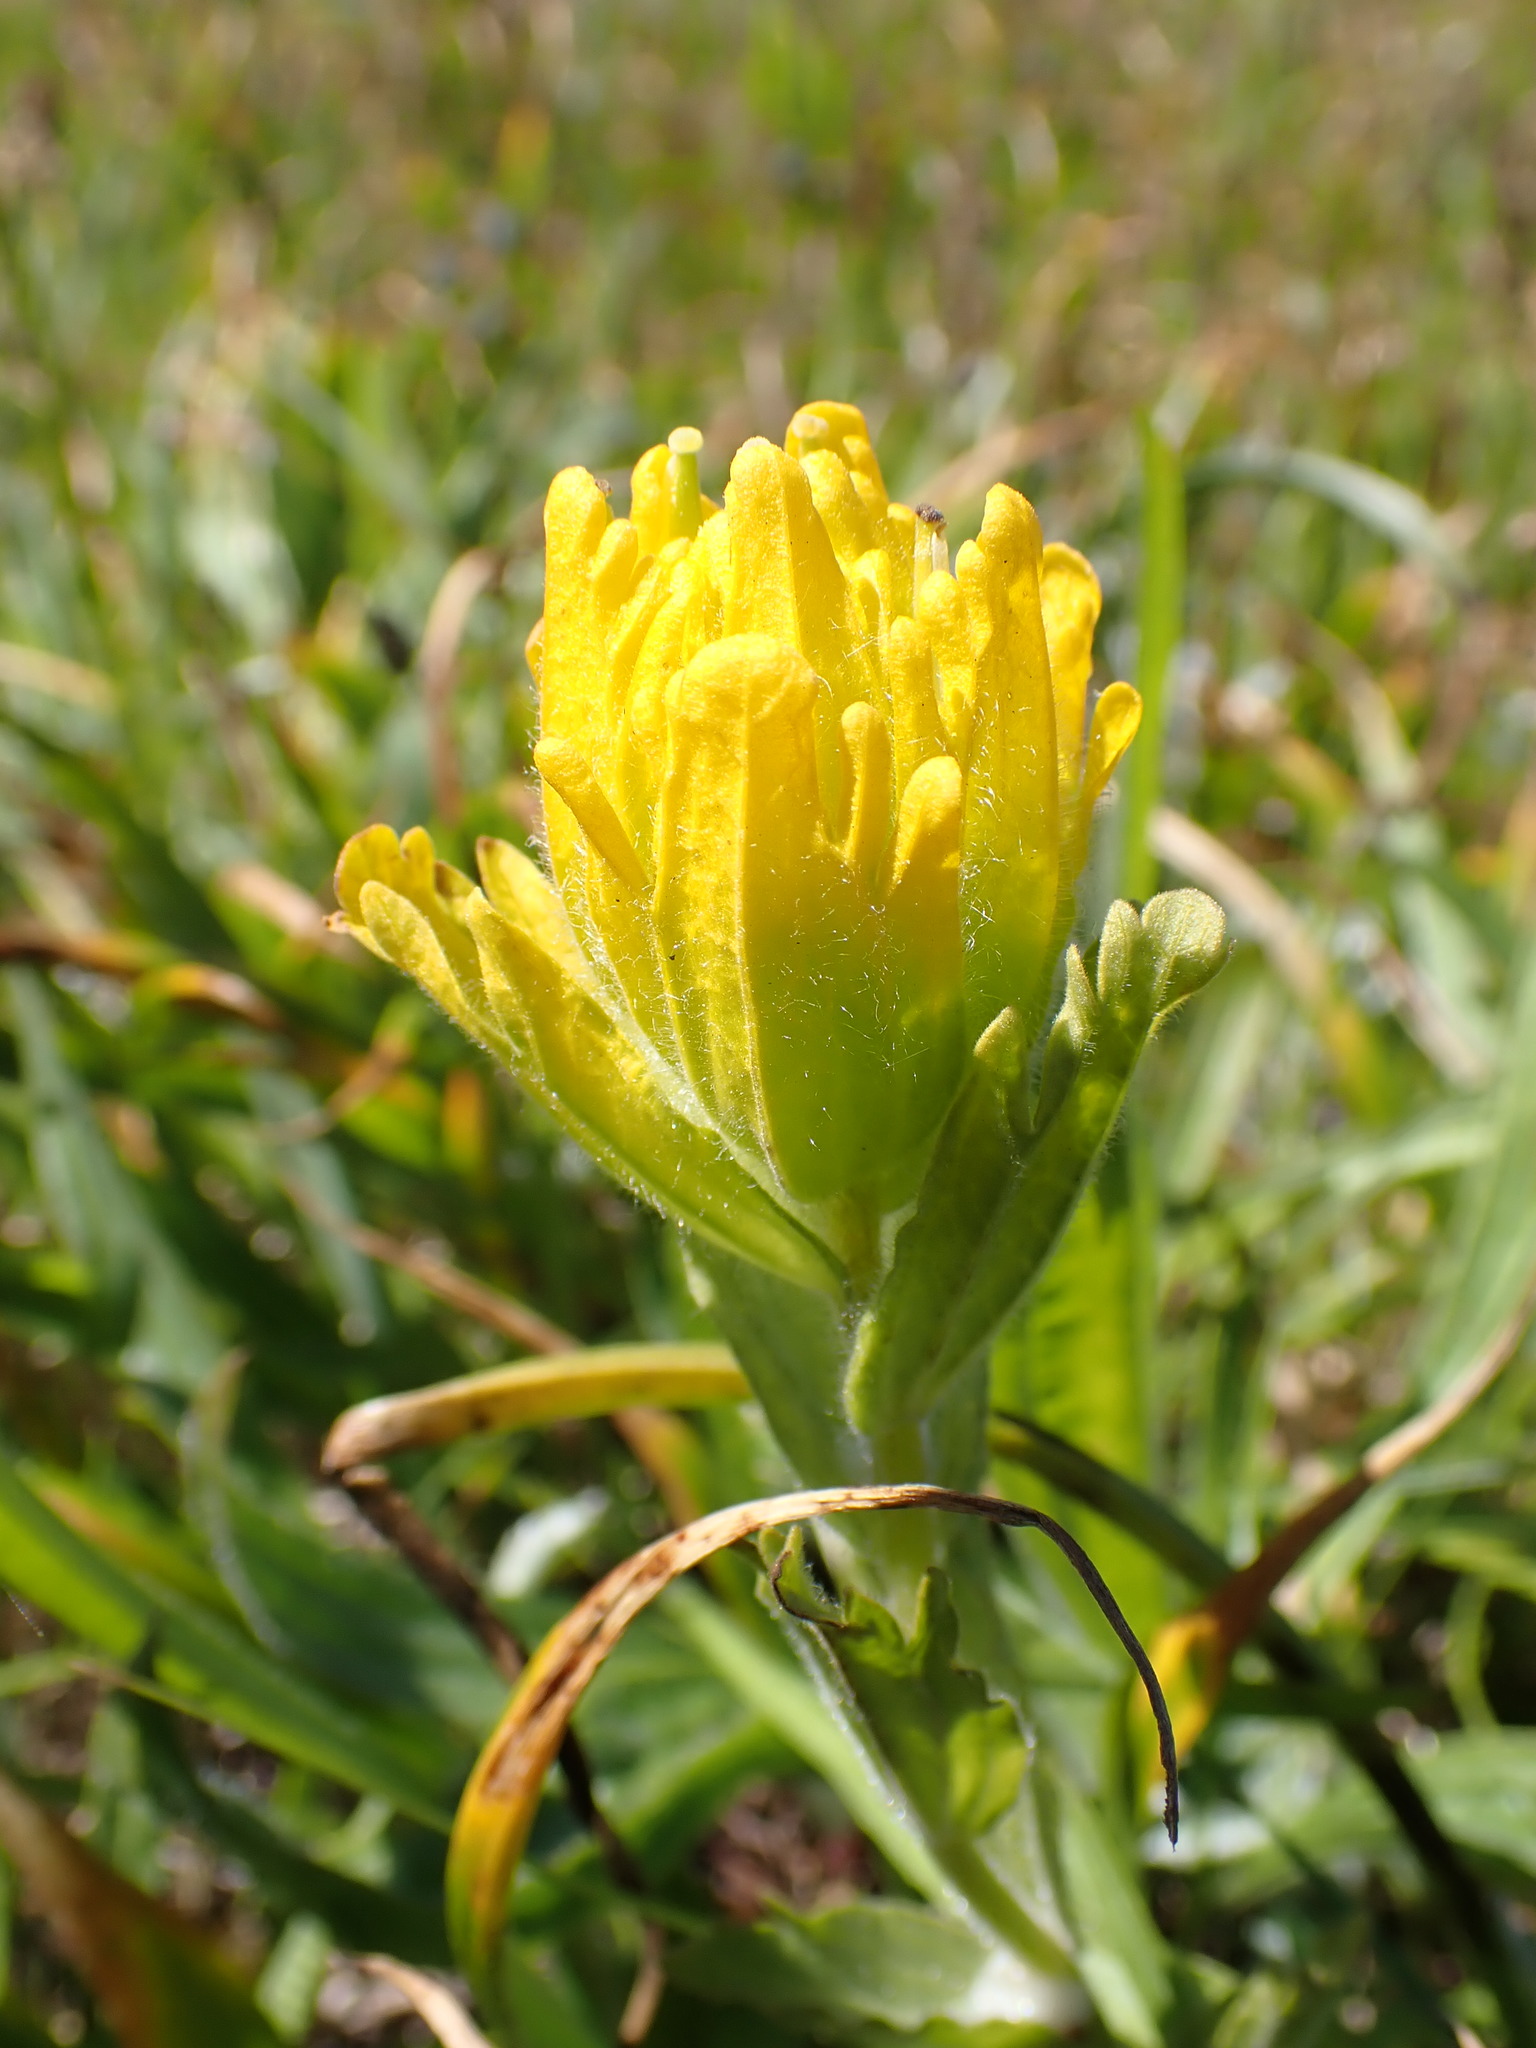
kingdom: Plantae
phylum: Tracheophyta
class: Magnoliopsida
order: Lamiales
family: Orobanchaceae
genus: Castilleja
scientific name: Castilleja levisecta
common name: Golden paintbrush
